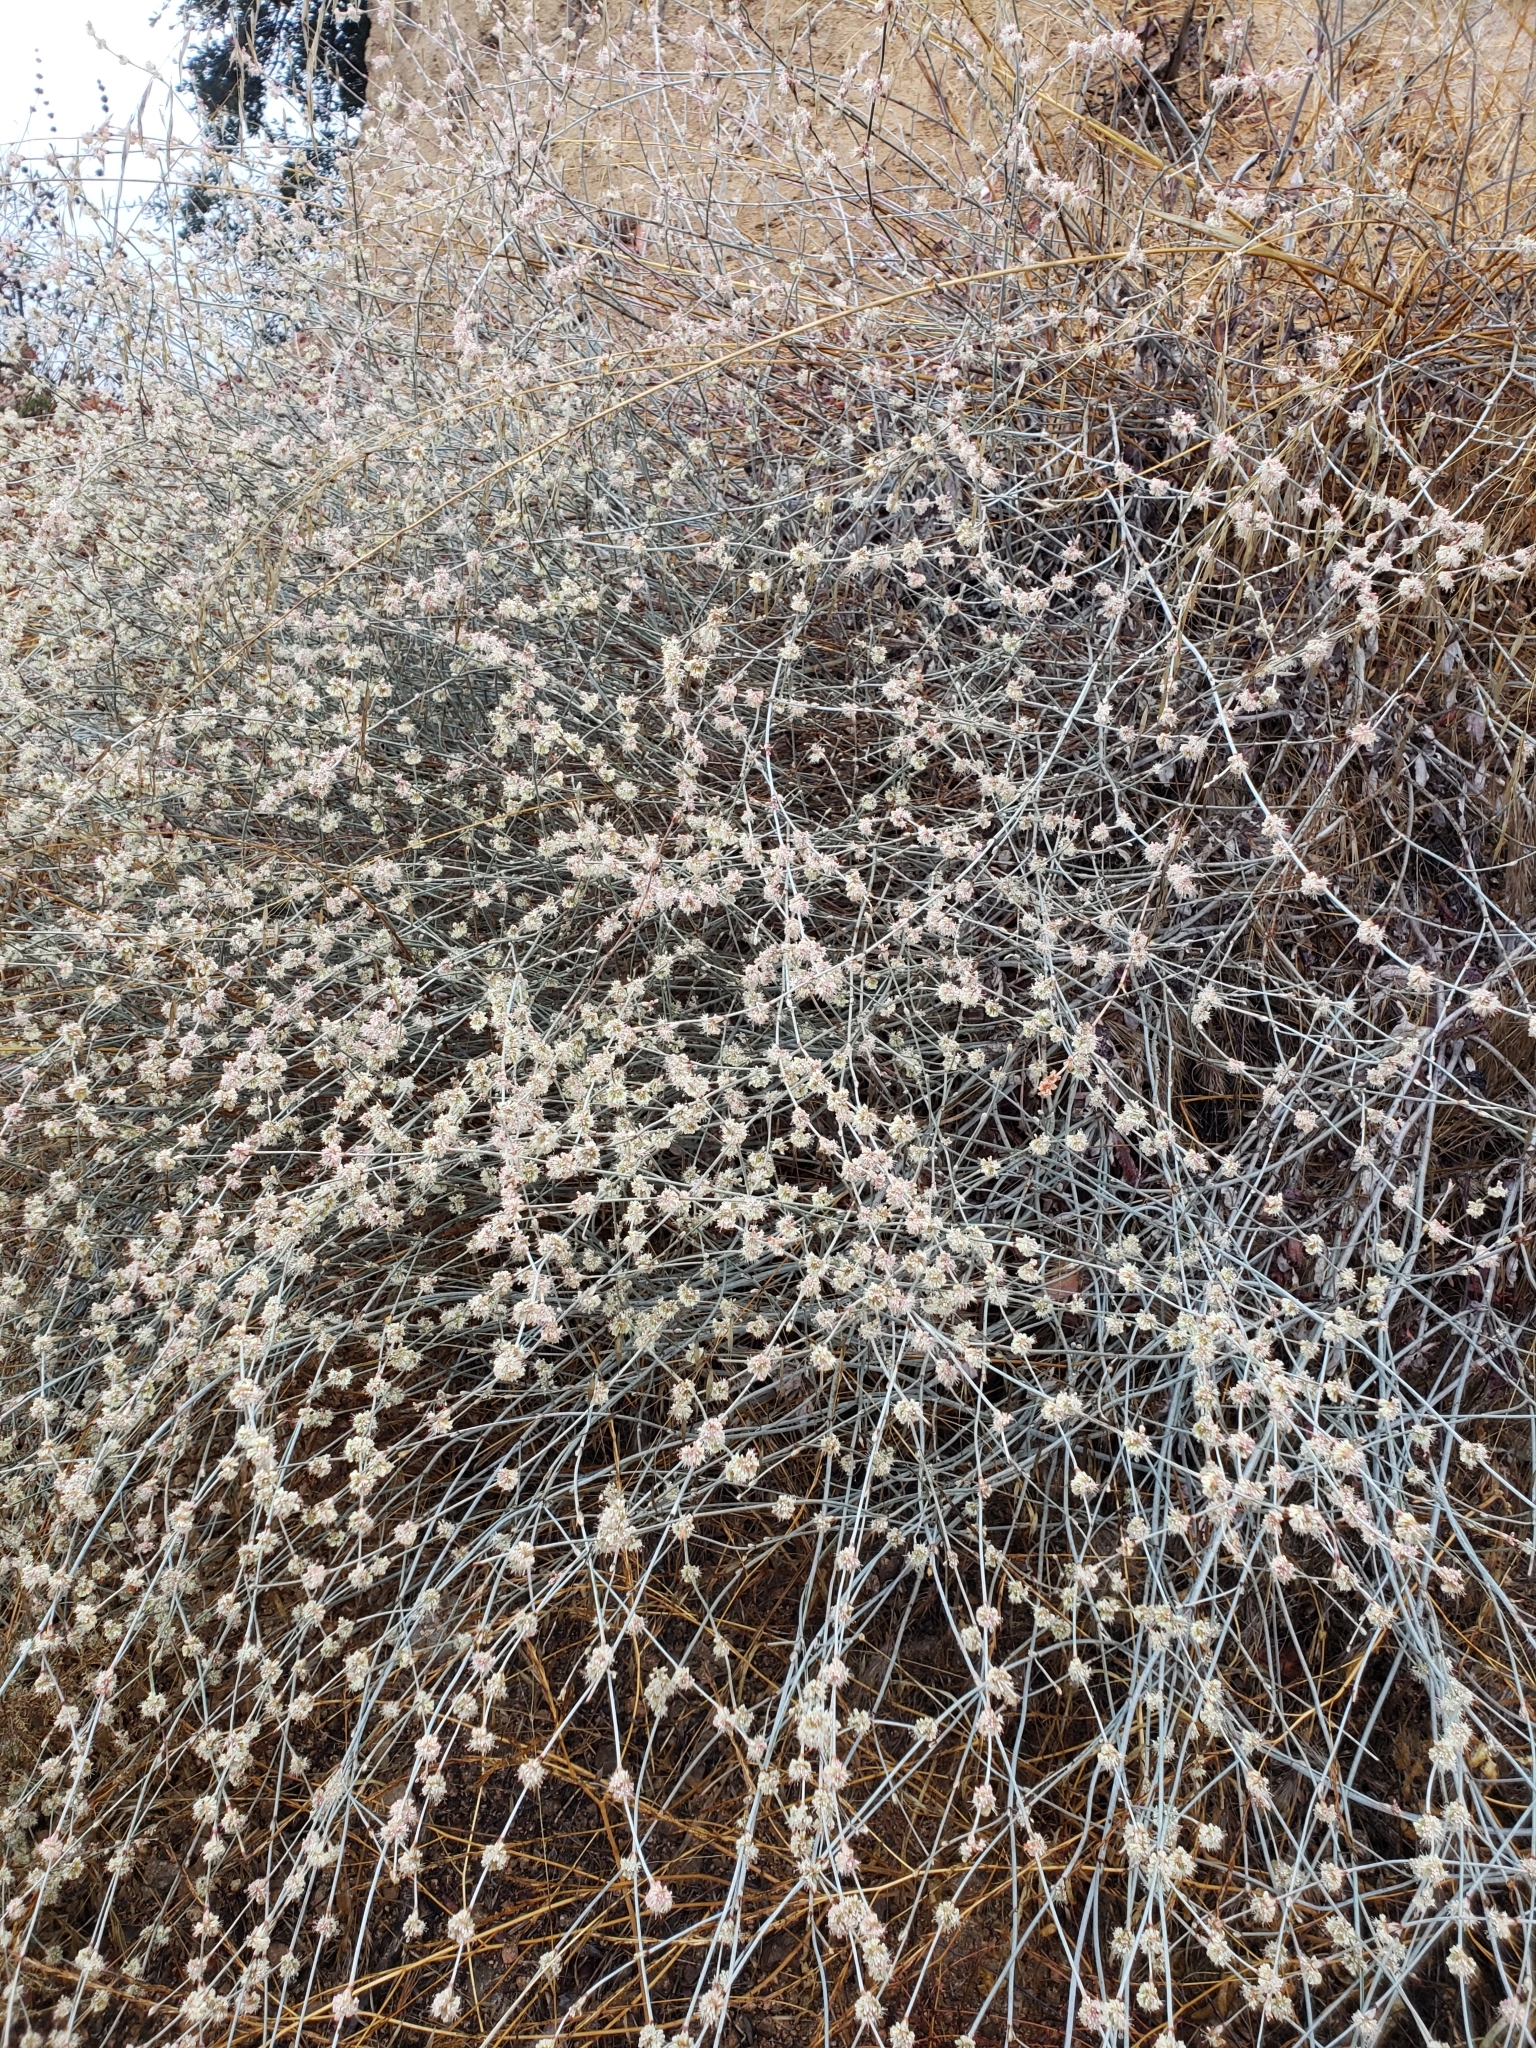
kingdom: Plantae
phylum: Tracheophyta
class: Magnoliopsida
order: Caryophyllales
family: Polygonaceae
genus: Eriogonum
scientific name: Eriogonum elongatum
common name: Long-stem wild buckwheat
